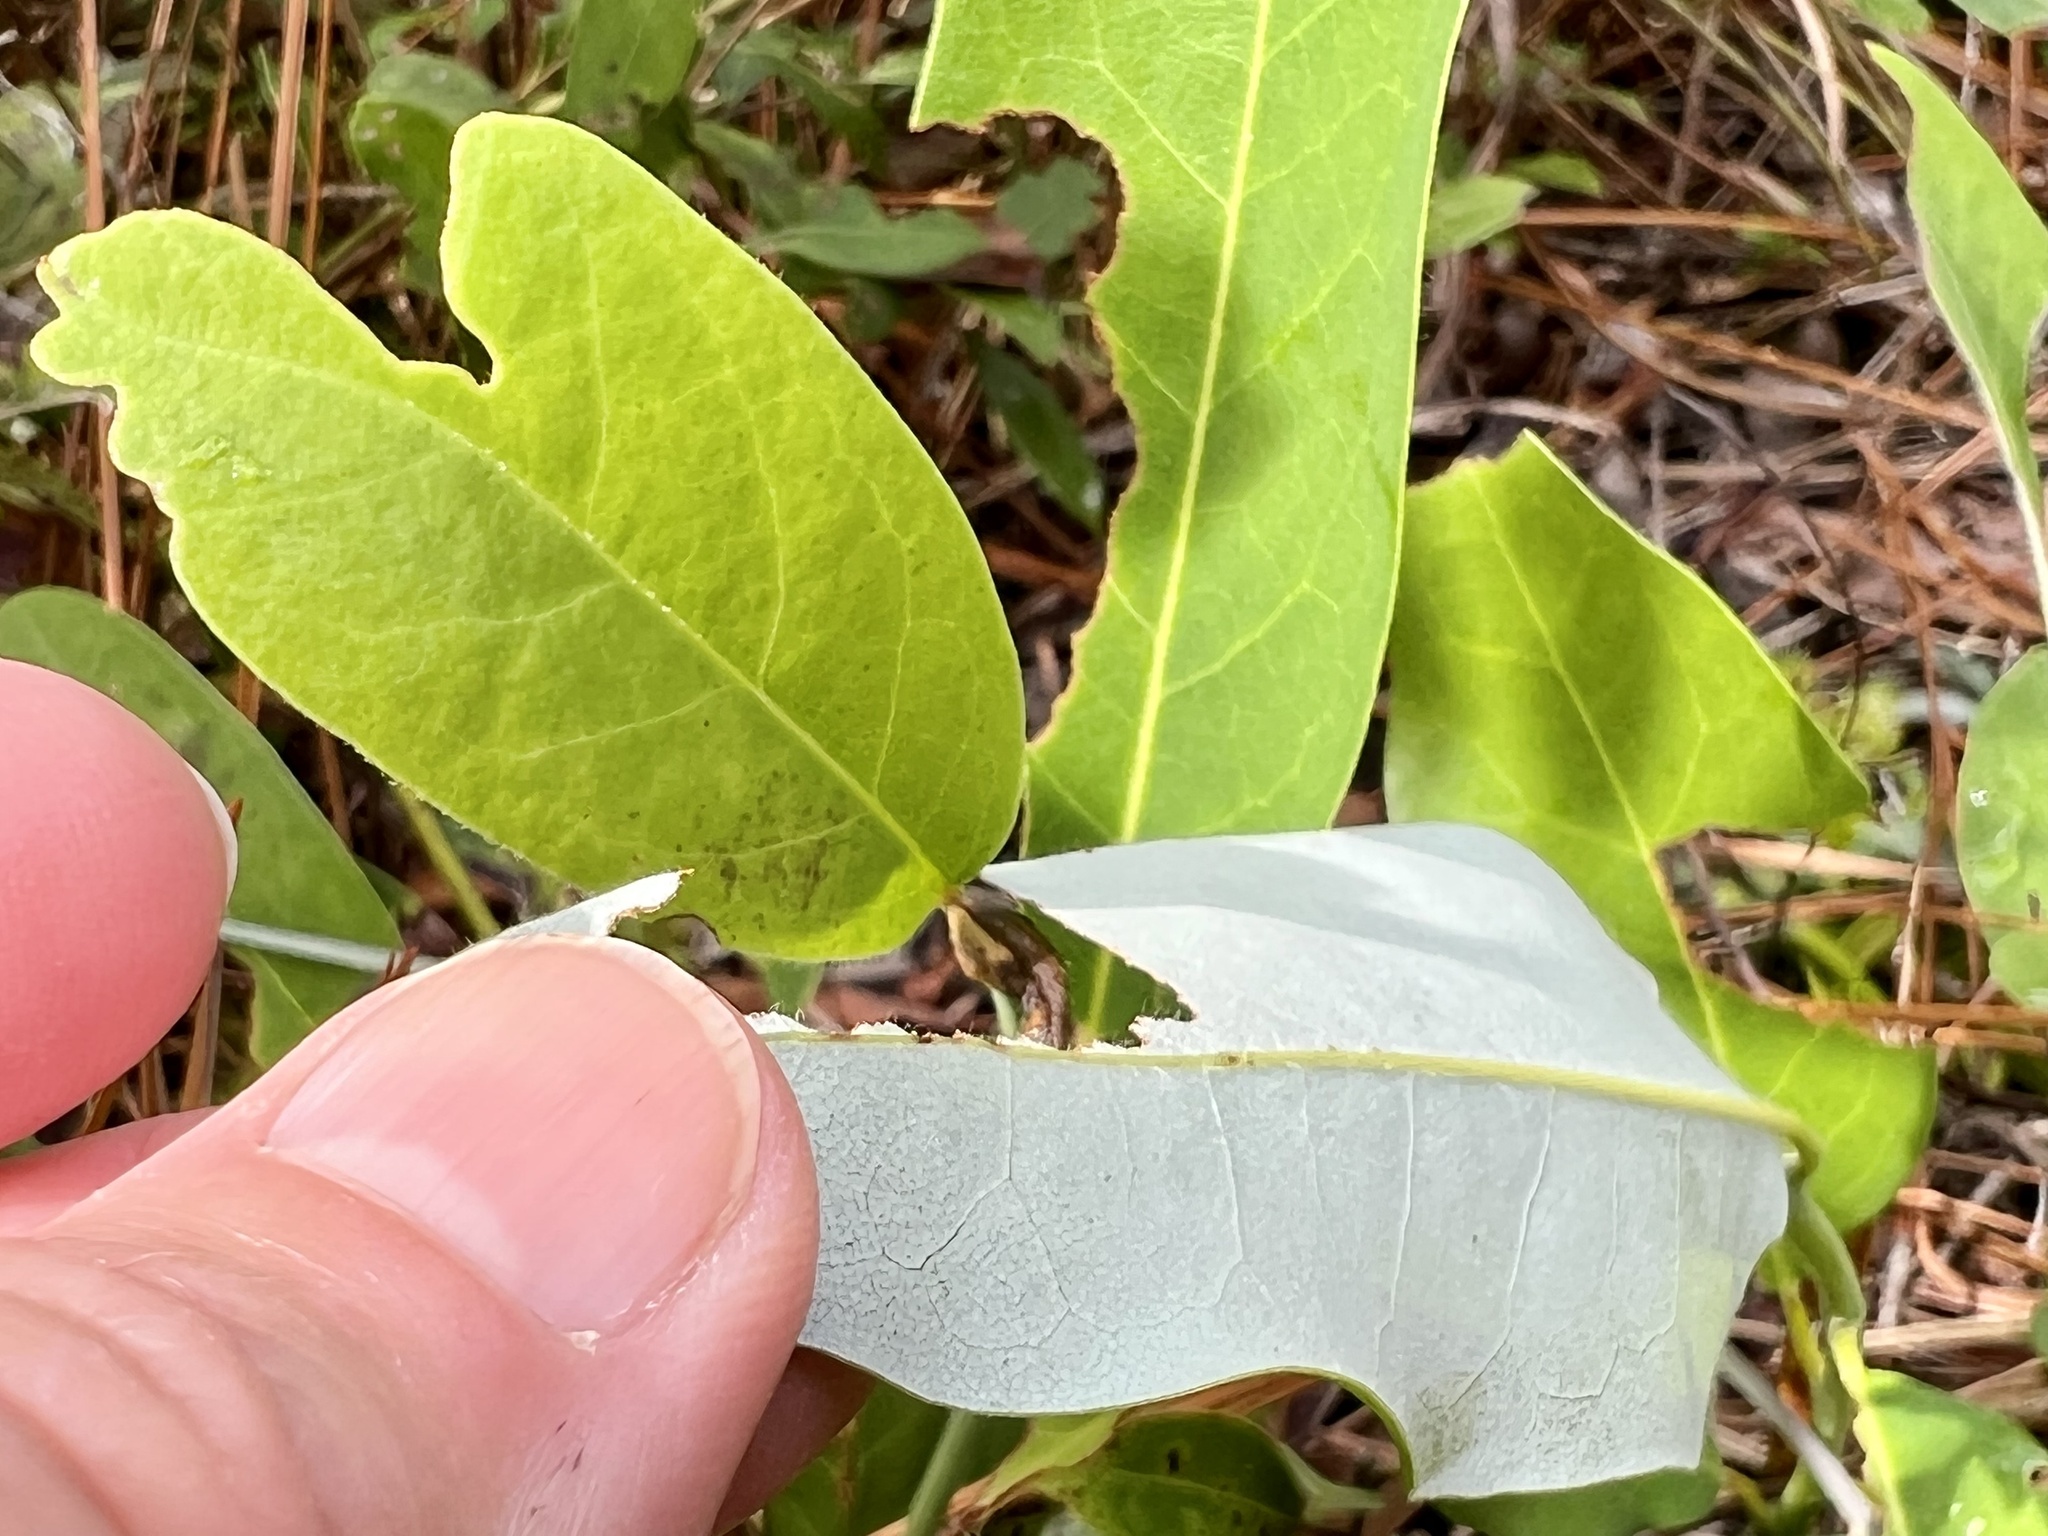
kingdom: Plantae
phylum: Tracheophyta
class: Magnoliopsida
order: Magnoliales
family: Magnoliaceae
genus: Magnolia
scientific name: Magnolia virginiana
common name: Swamp bay
